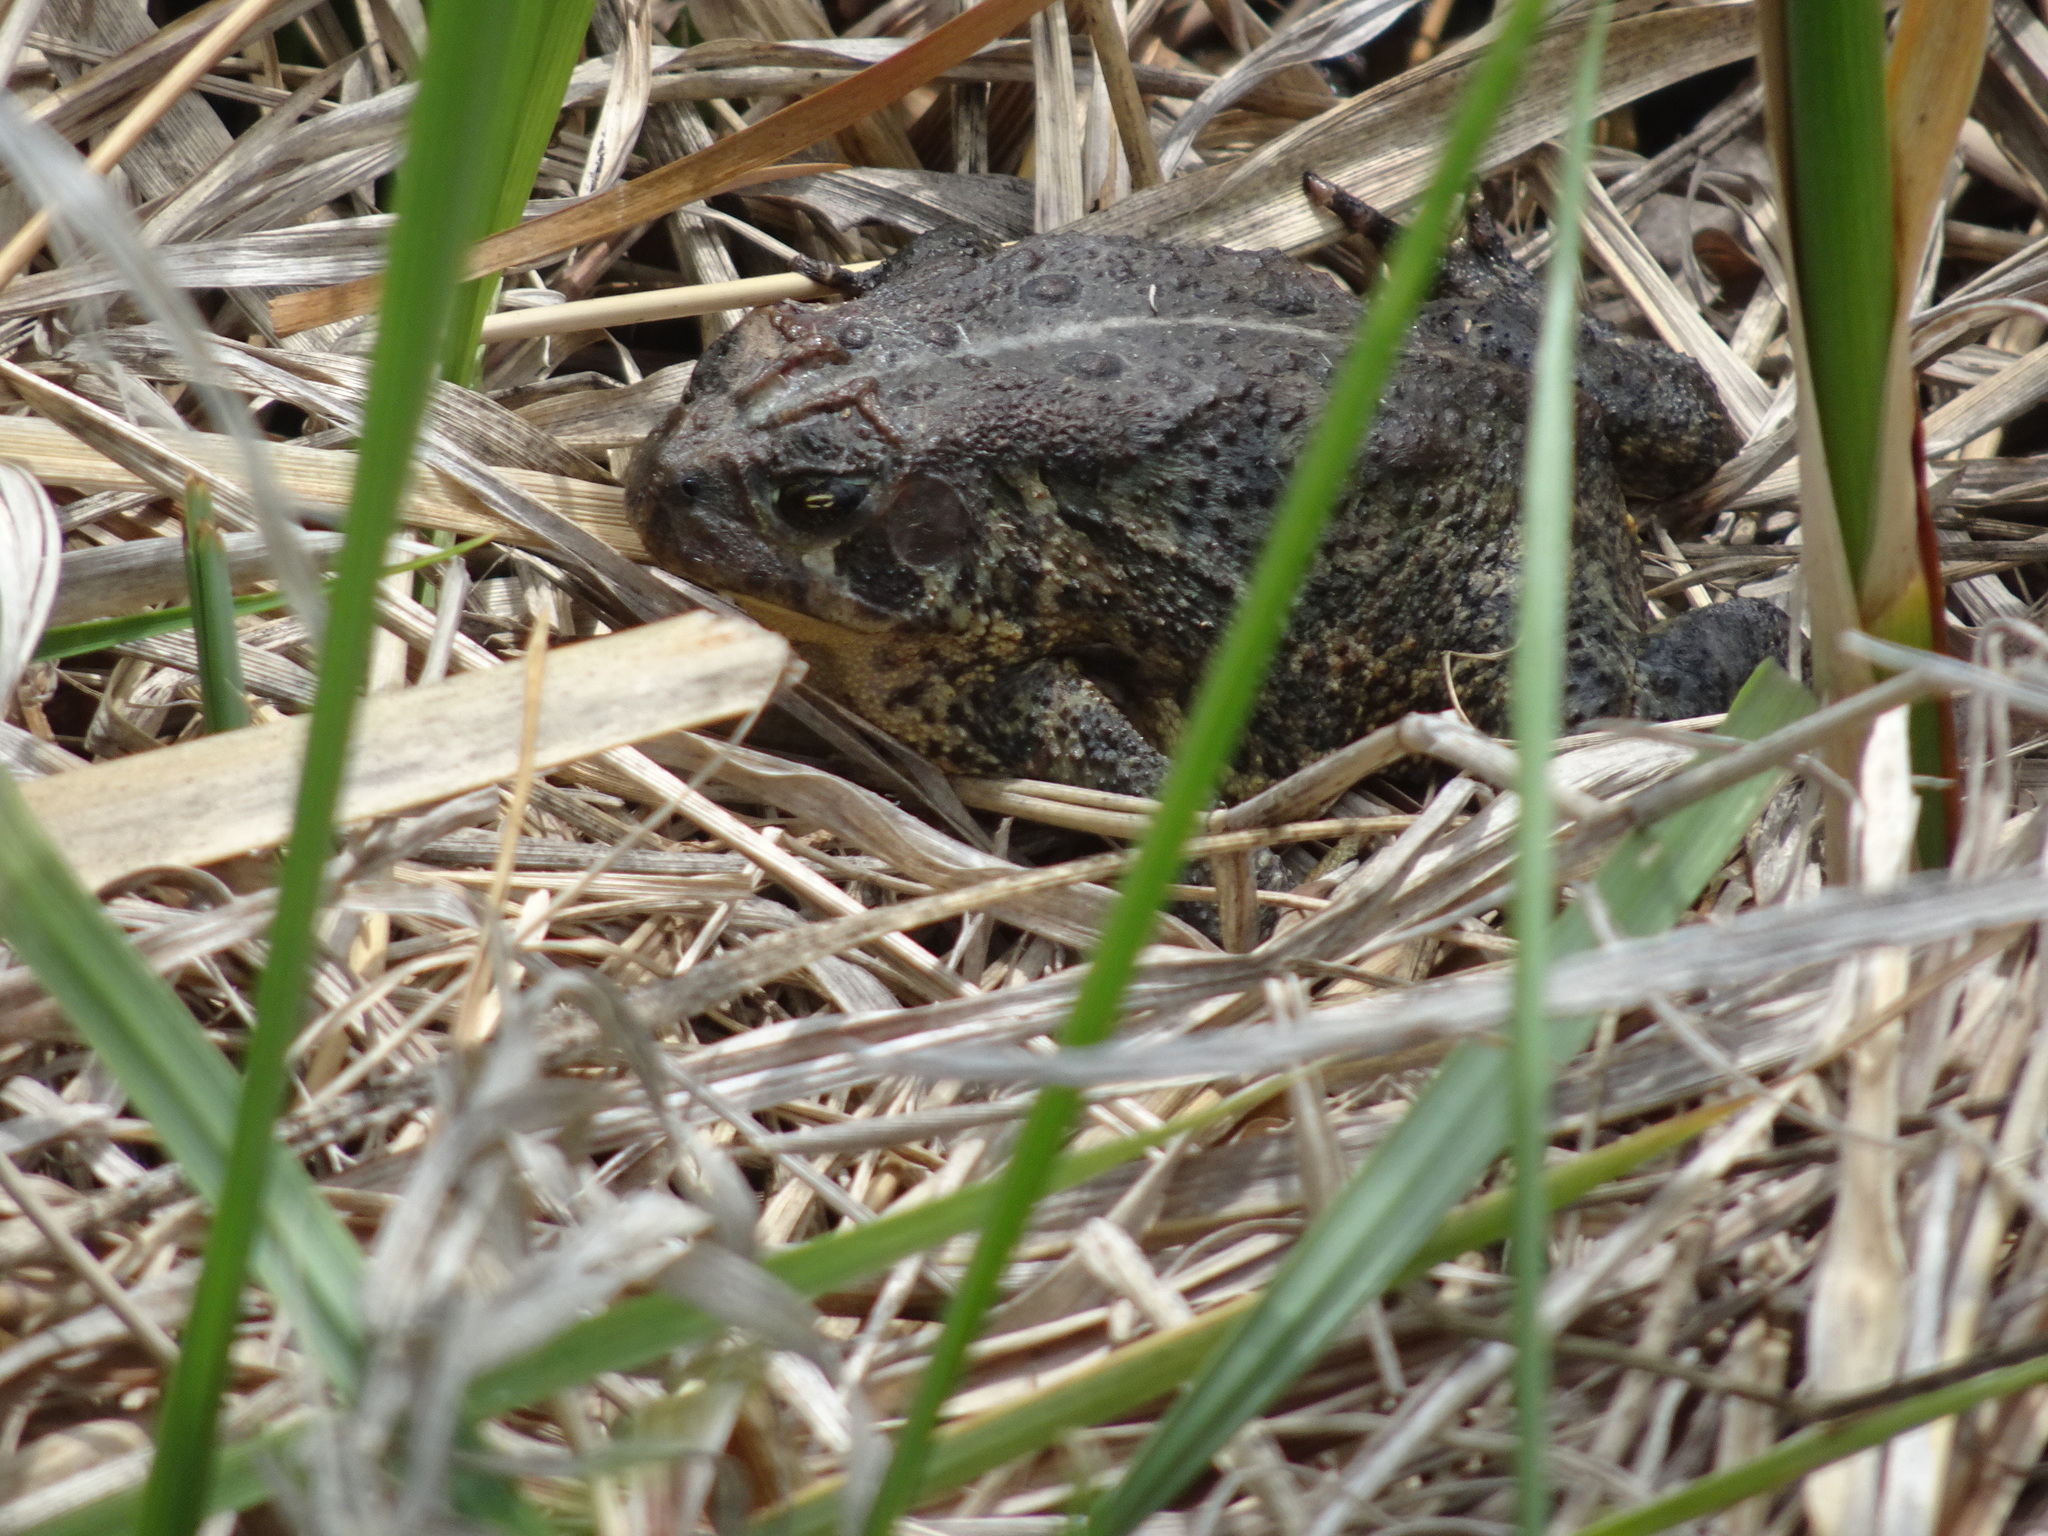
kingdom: Animalia
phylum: Chordata
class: Amphibia
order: Anura
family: Bufonidae
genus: Anaxyrus
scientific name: Anaxyrus americanus
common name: American toad
